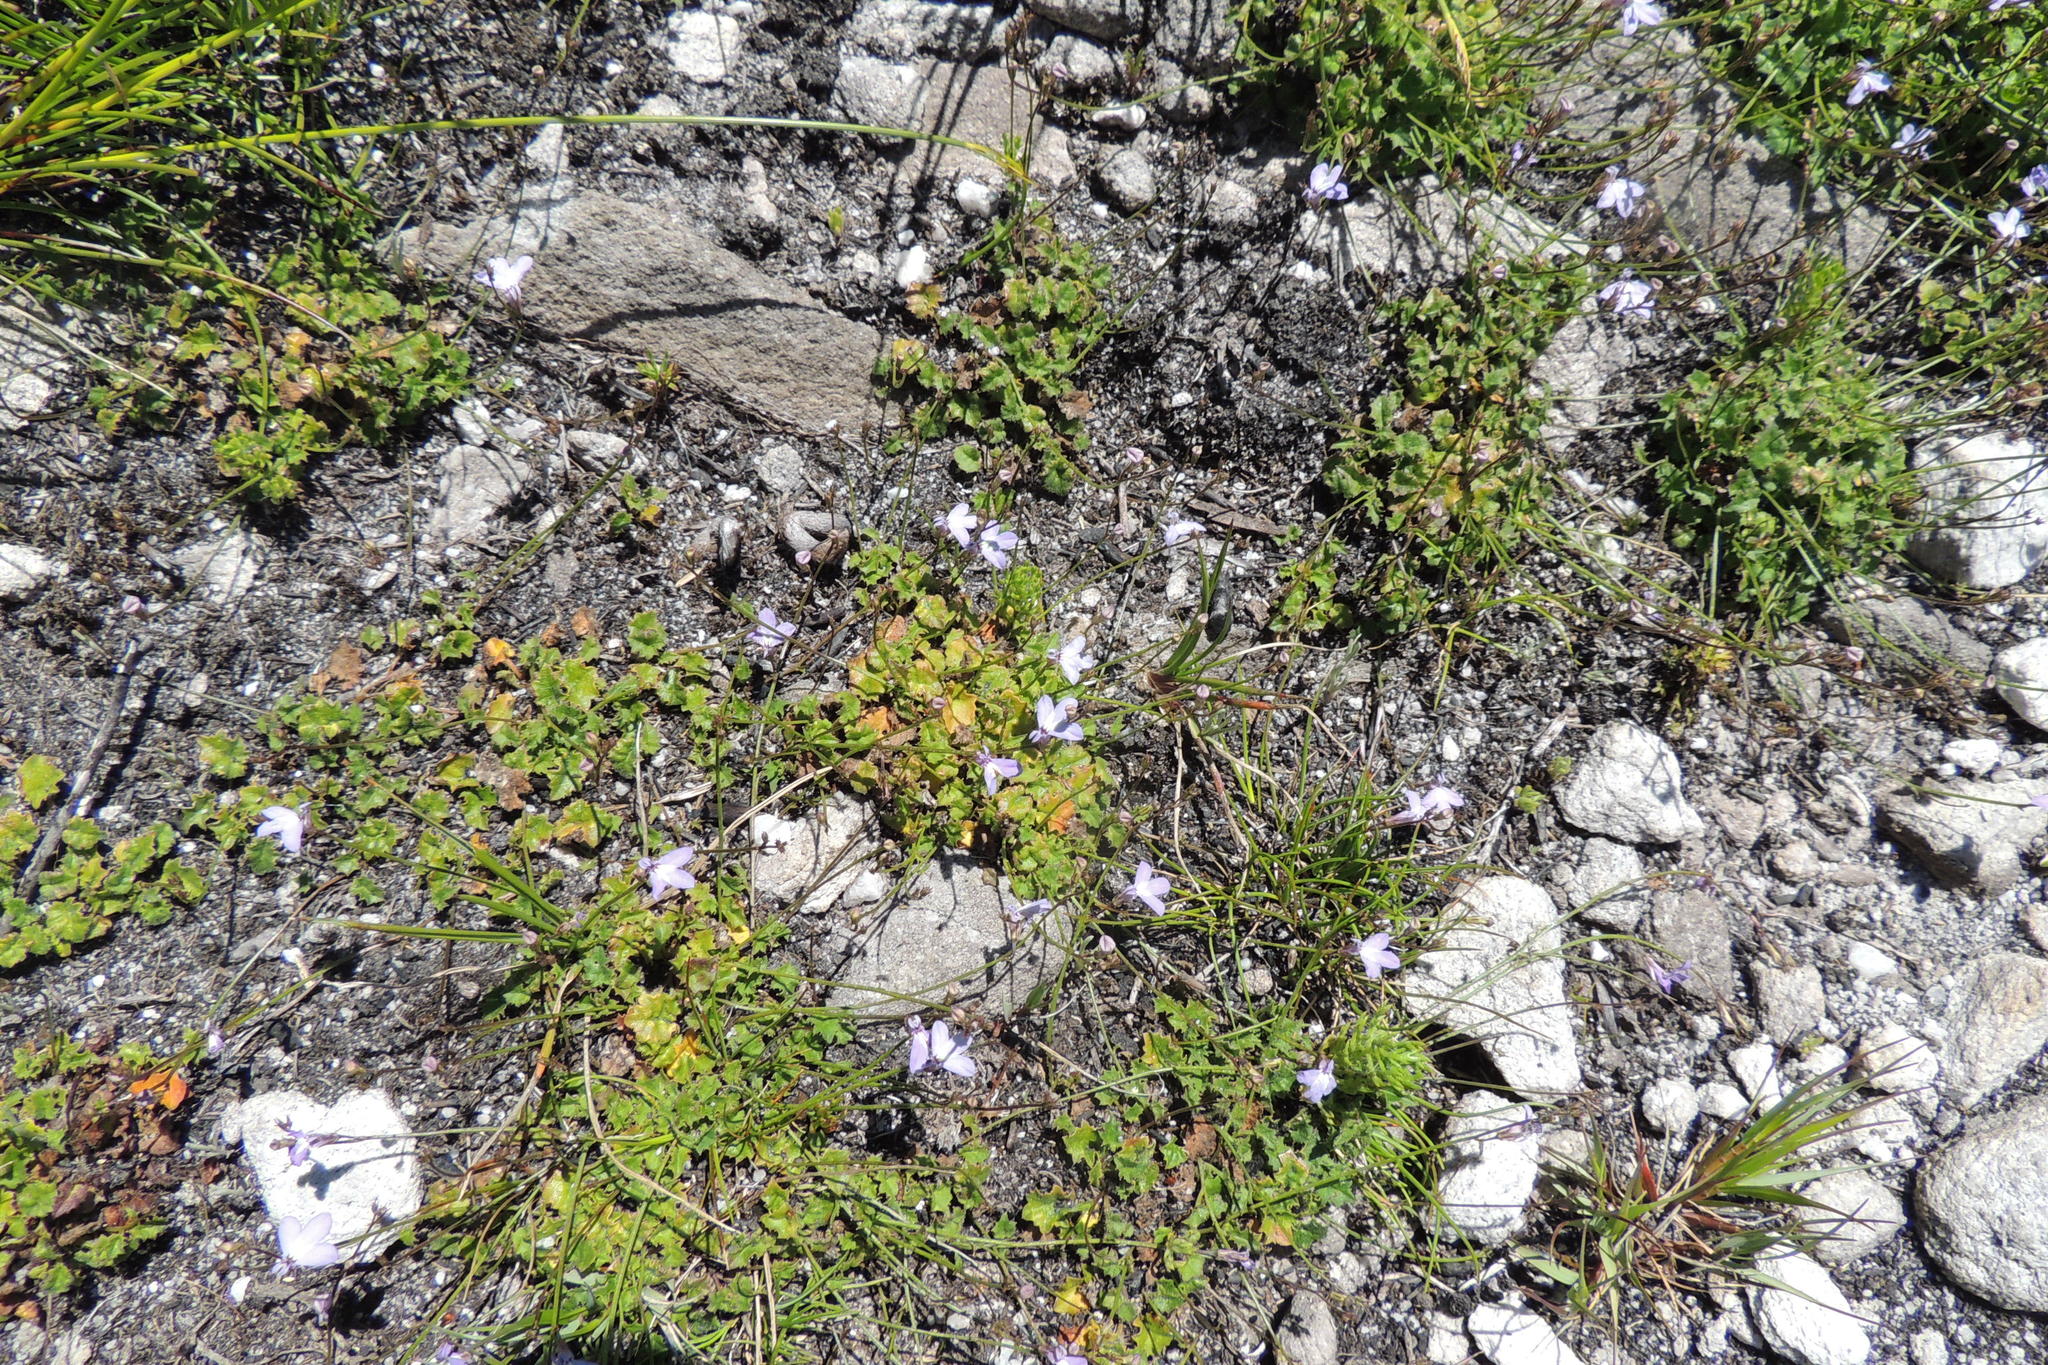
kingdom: Plantae
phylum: Tracheophyta
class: Magnoliopsida
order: Asterales
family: Campanulaceae
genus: Lobelia
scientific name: Lobelia dasyphylla
